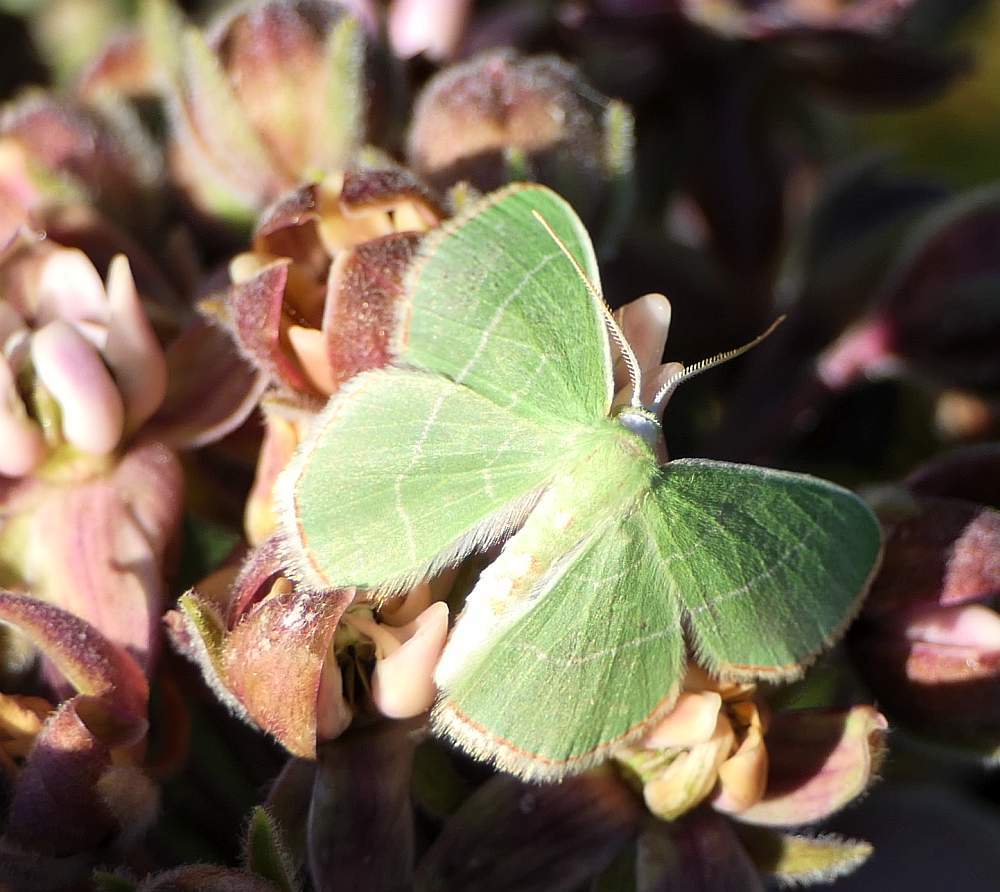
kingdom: Animalia
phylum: Arthropoda
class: Insecta
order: Lepidoptera
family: Geometridae
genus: Nemoria
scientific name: Nemoria bistriaria
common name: Red-fringed emerald
